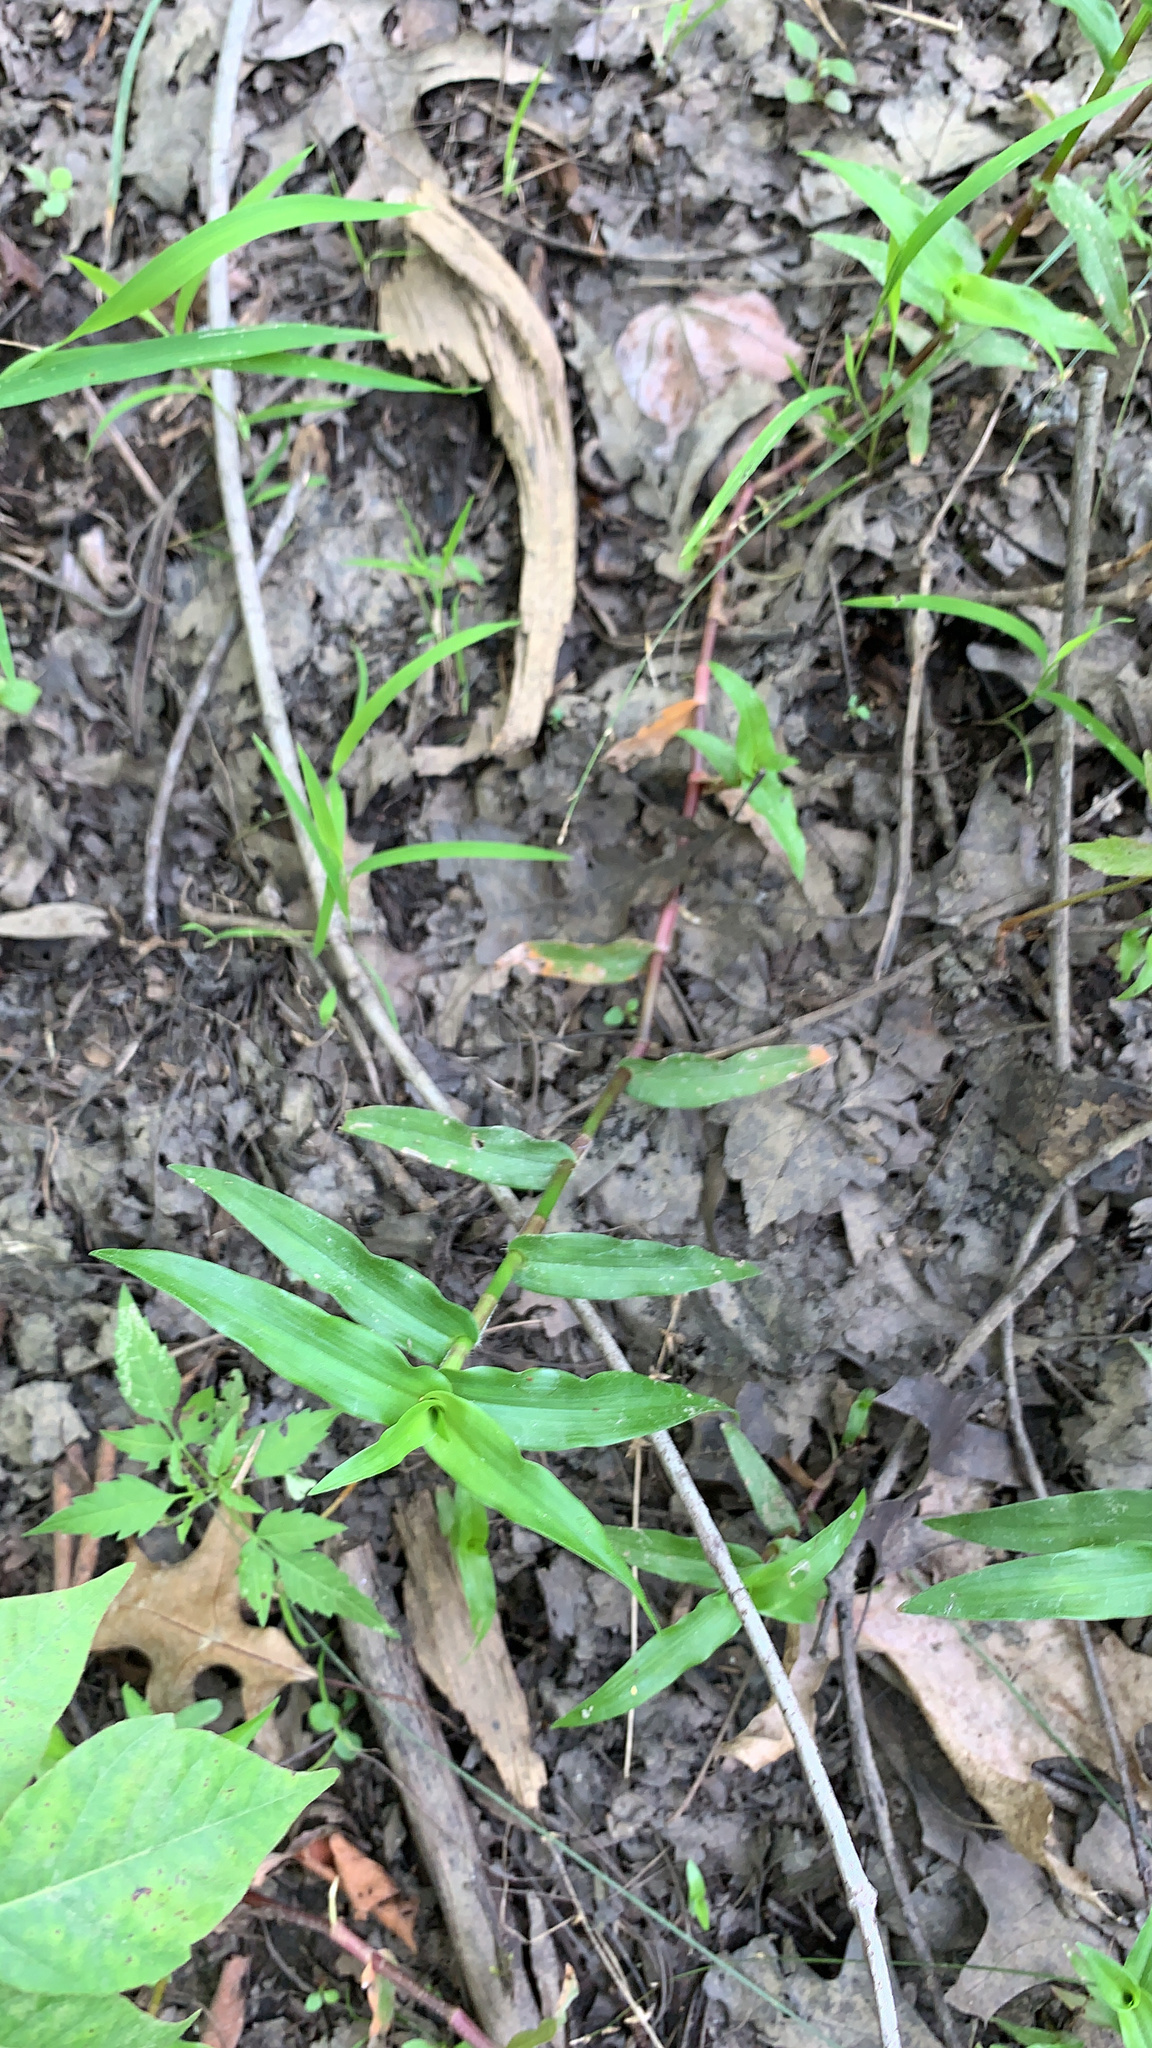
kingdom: Plantae
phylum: Tracheophyta
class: Liliopsida
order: Commelinales
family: Commelinaceae
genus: Murdannia
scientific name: Murdannia keisak
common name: Wartremoving herb
